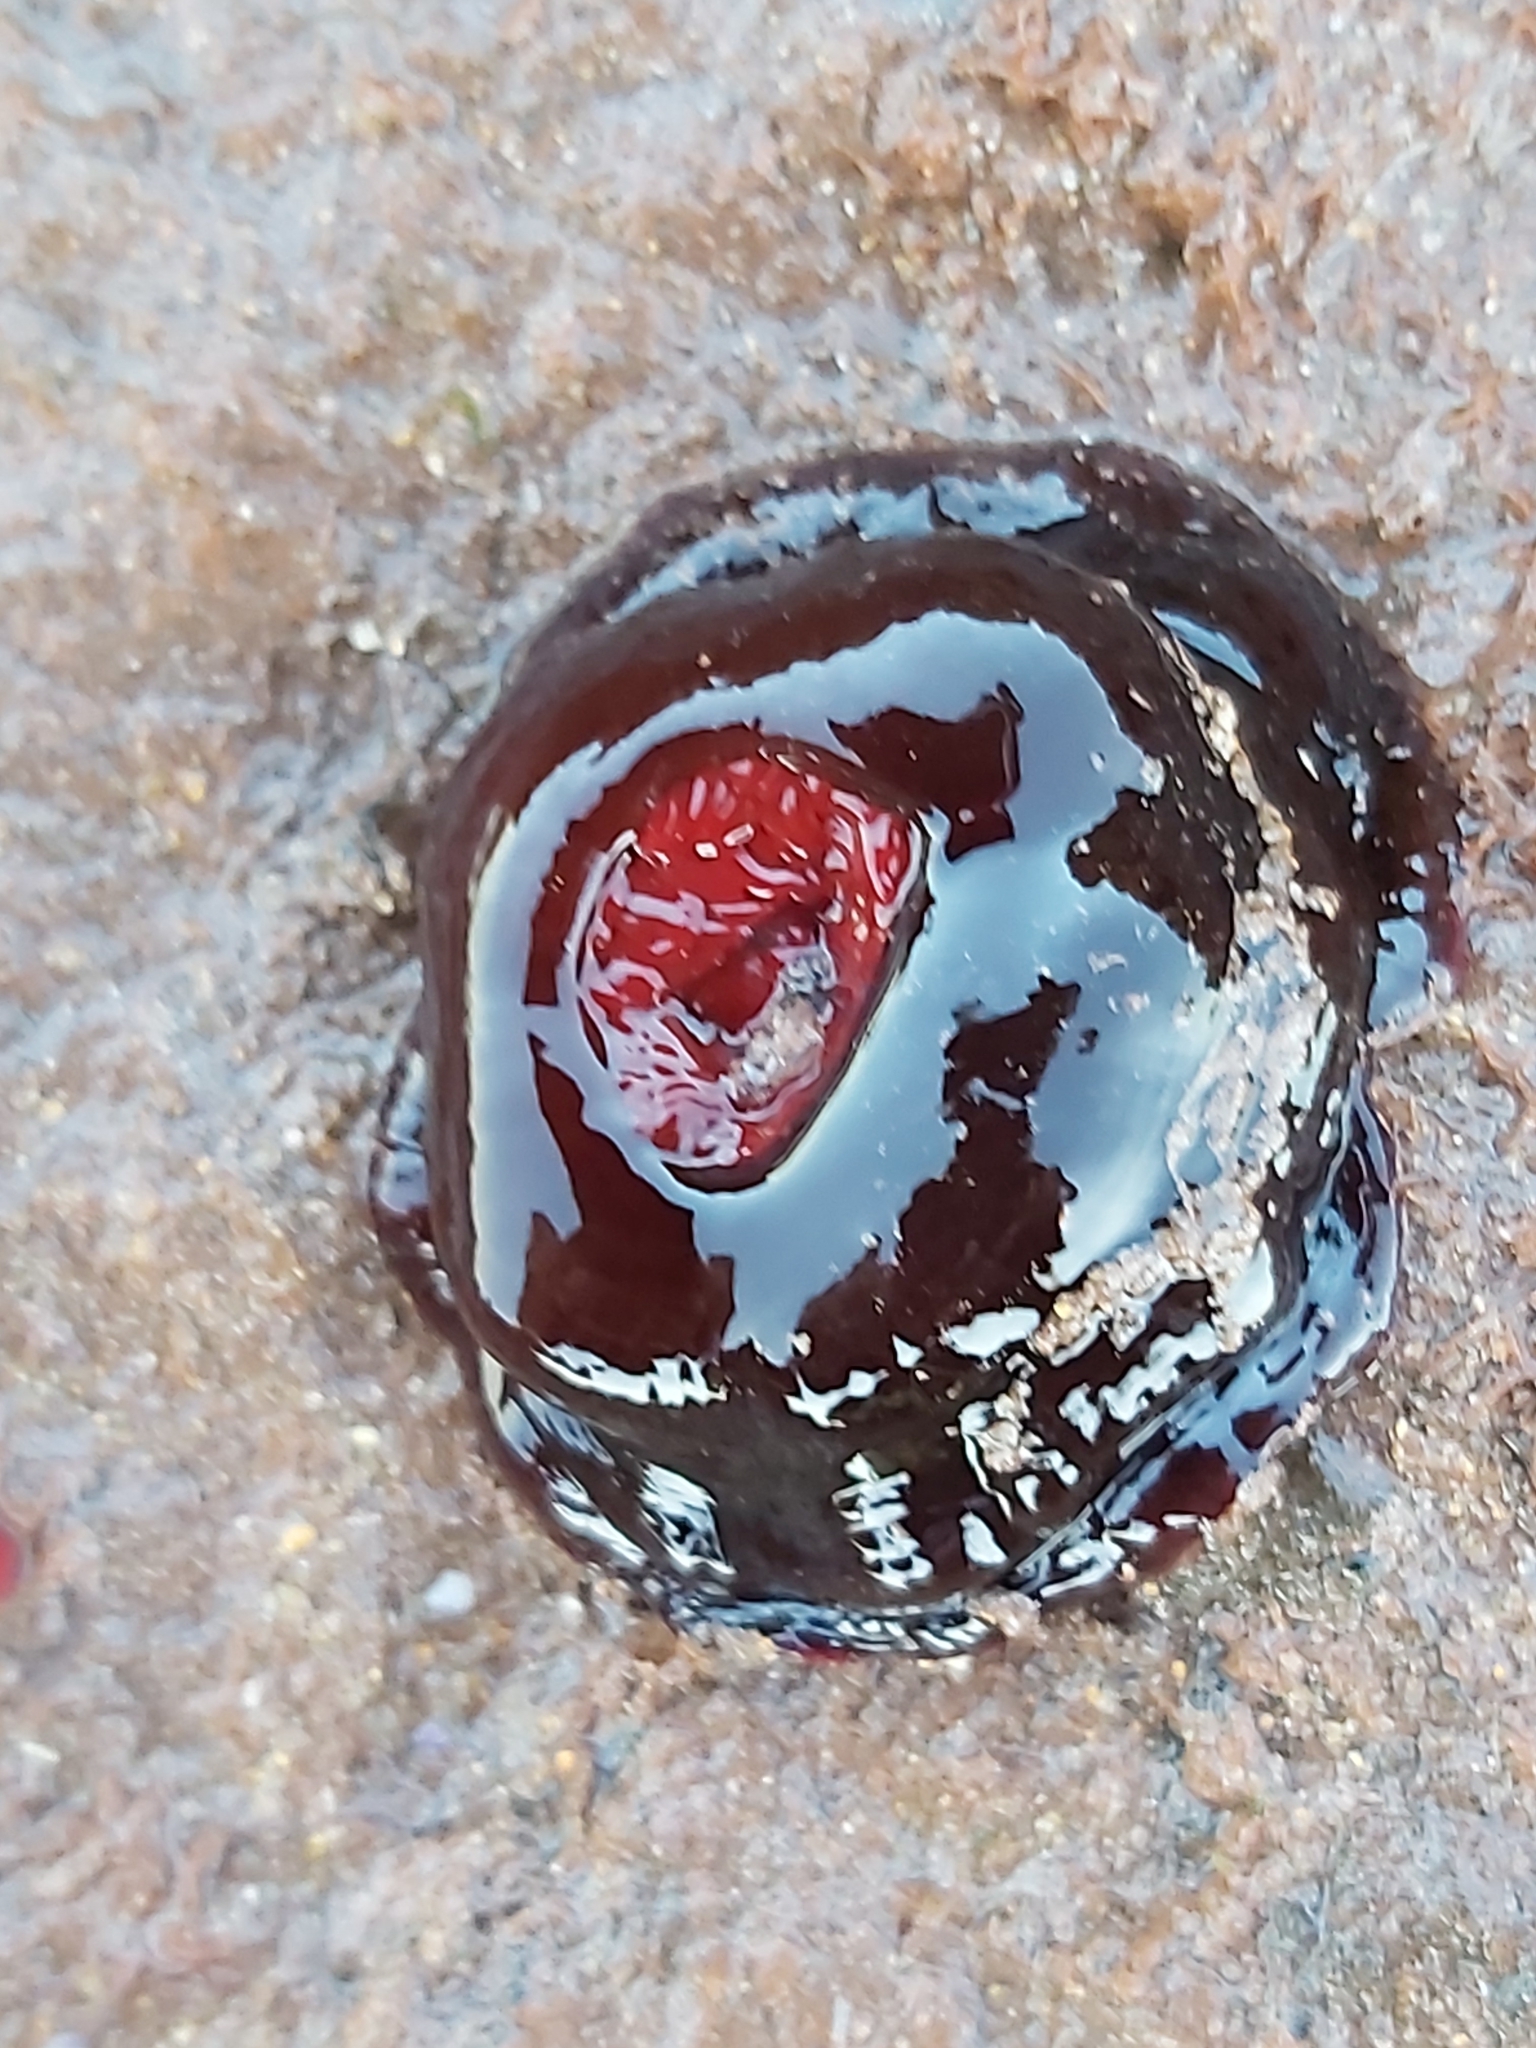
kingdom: Animalia
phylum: Cnidaria
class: Anthozoa
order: Actiniaria
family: Actiniidae
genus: Actinia
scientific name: Actinia tenebrosa
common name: Waratah anemone
